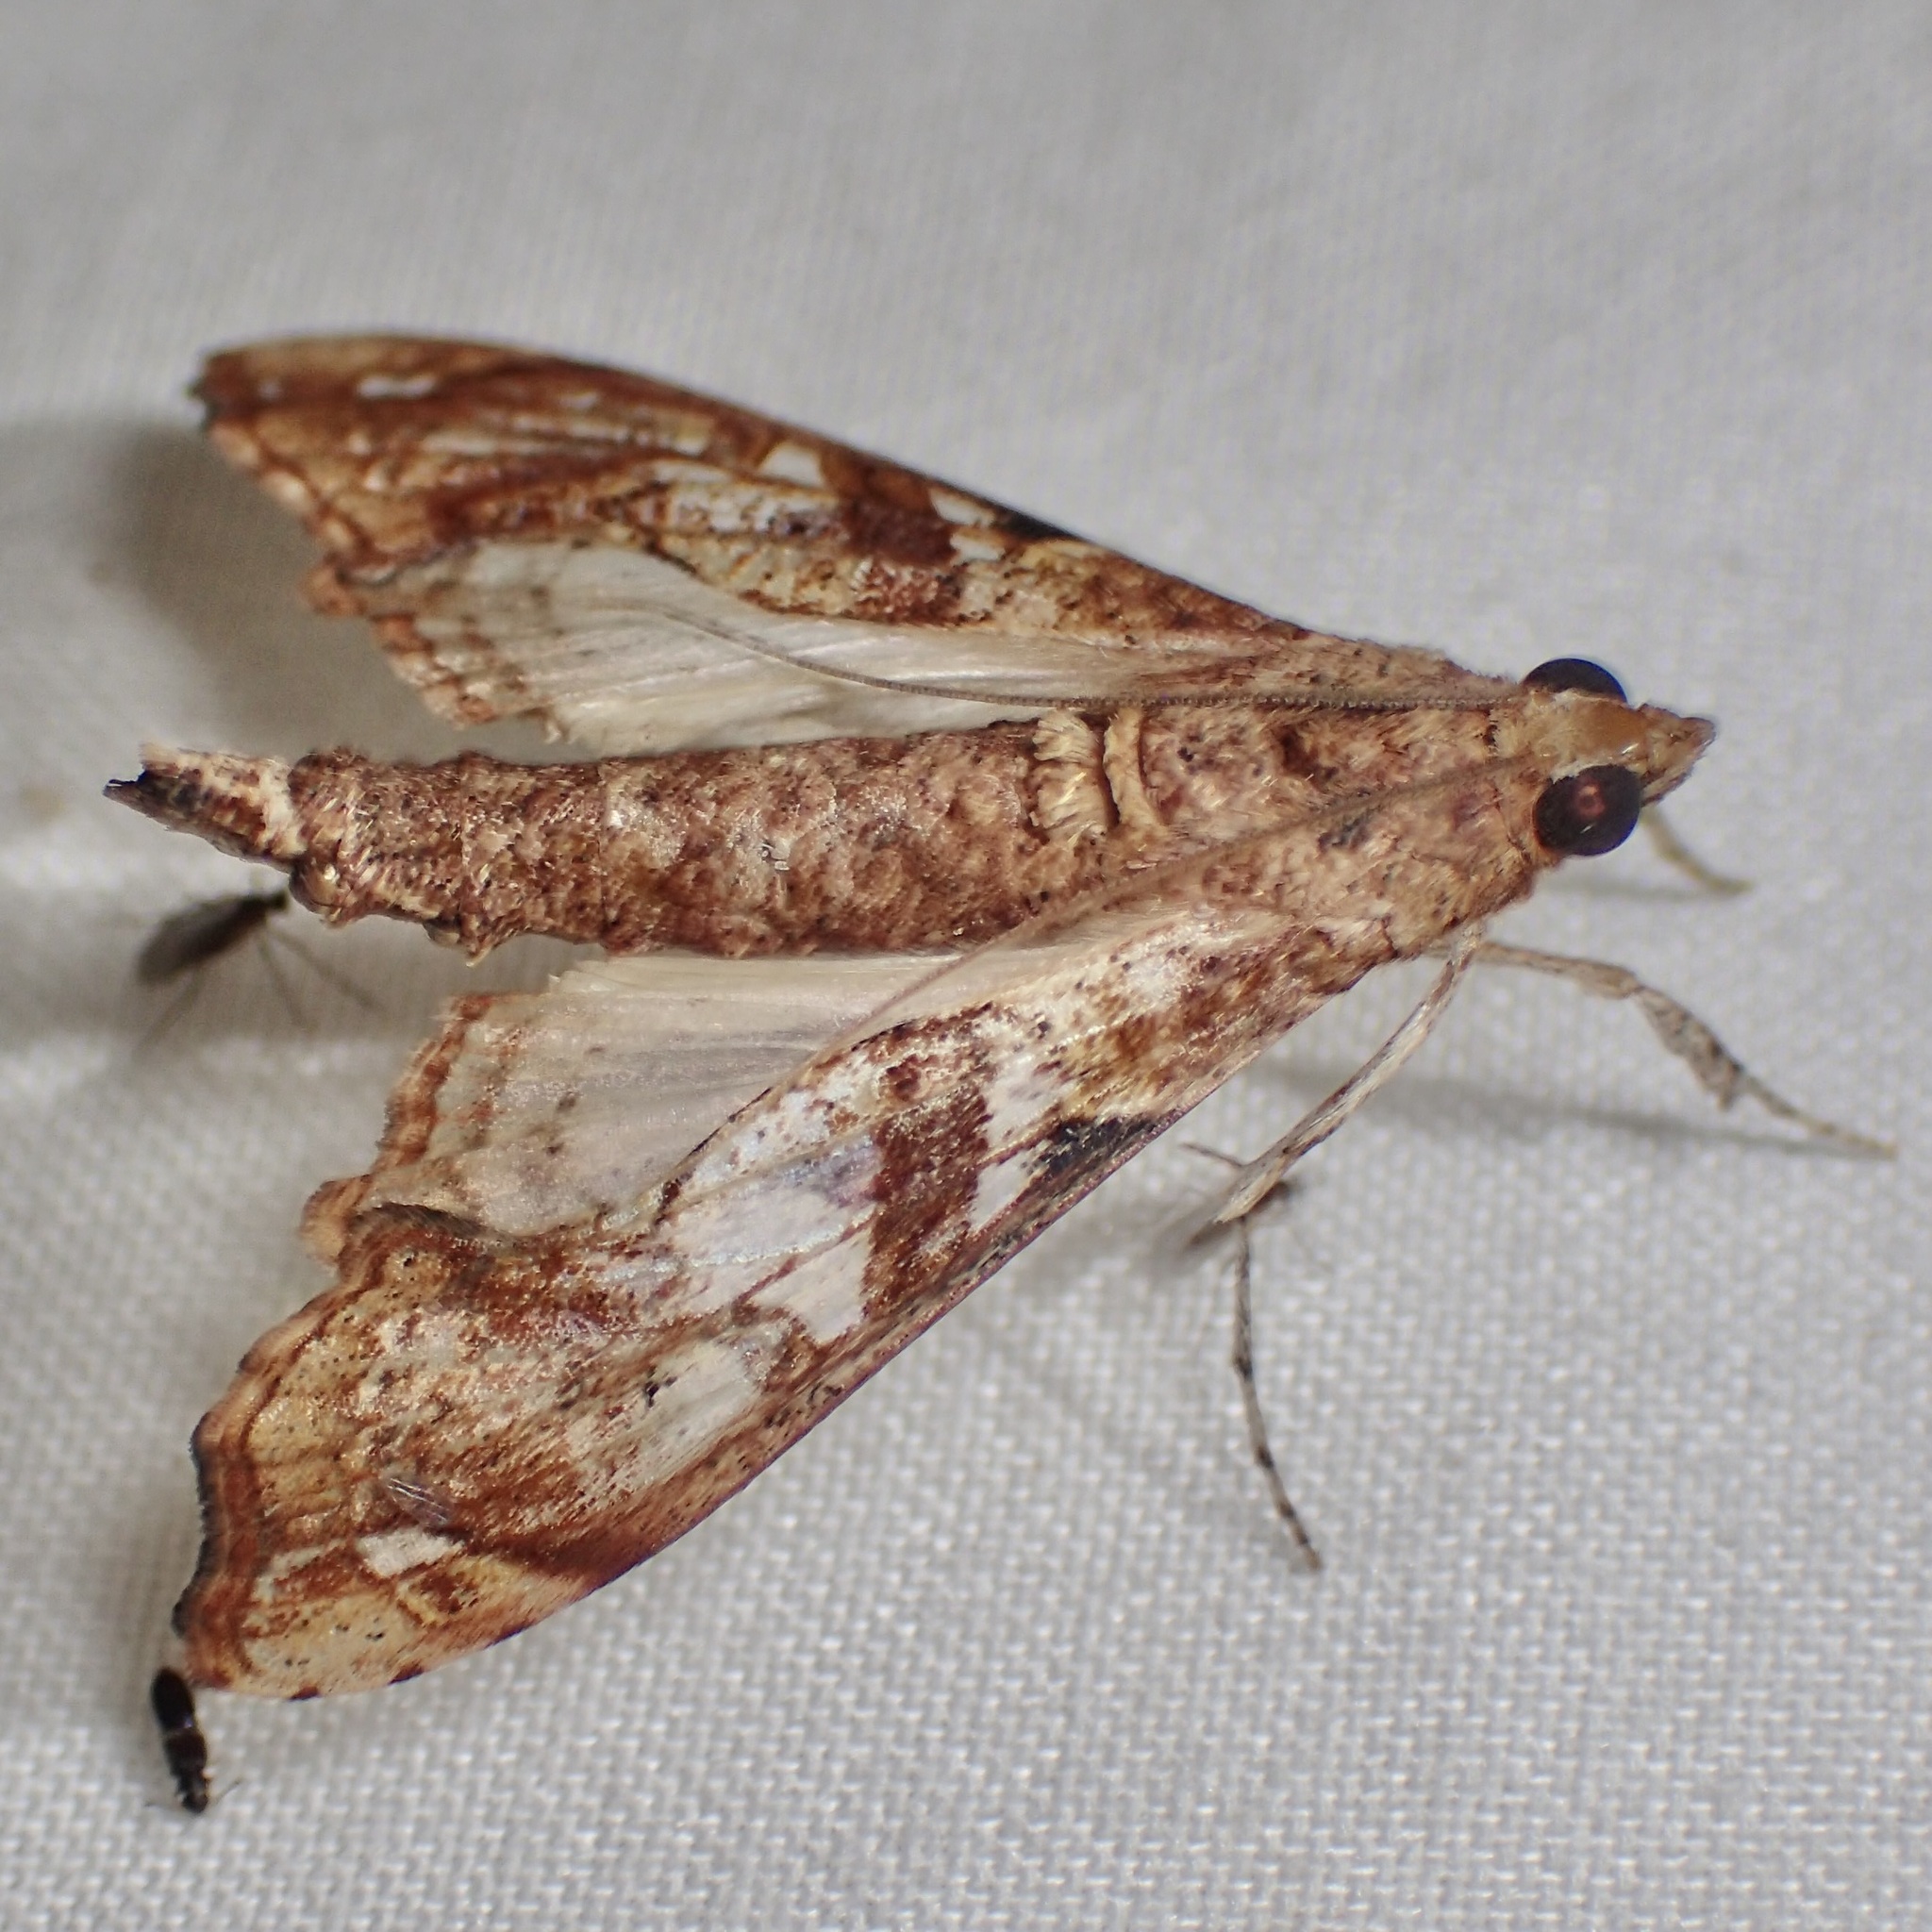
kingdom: Animalia
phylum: Arthropoda
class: Insecta
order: Lepidoptera
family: Crambidae
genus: Terastia
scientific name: Terastia meticulosalis
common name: Moth
